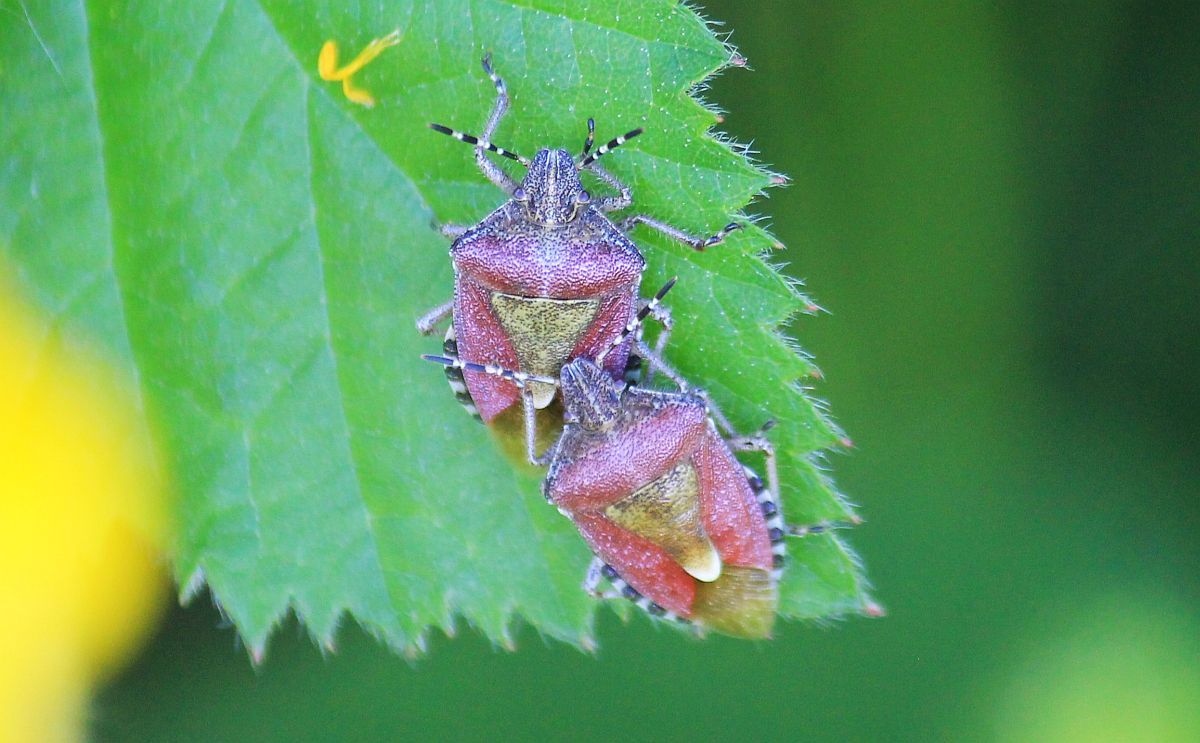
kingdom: Animalia
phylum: Arthropoda
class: Insecta
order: Hemiptera
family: Pentatomidae
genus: Dolycoris
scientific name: Dolycoris baccarum
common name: Sloe bug
